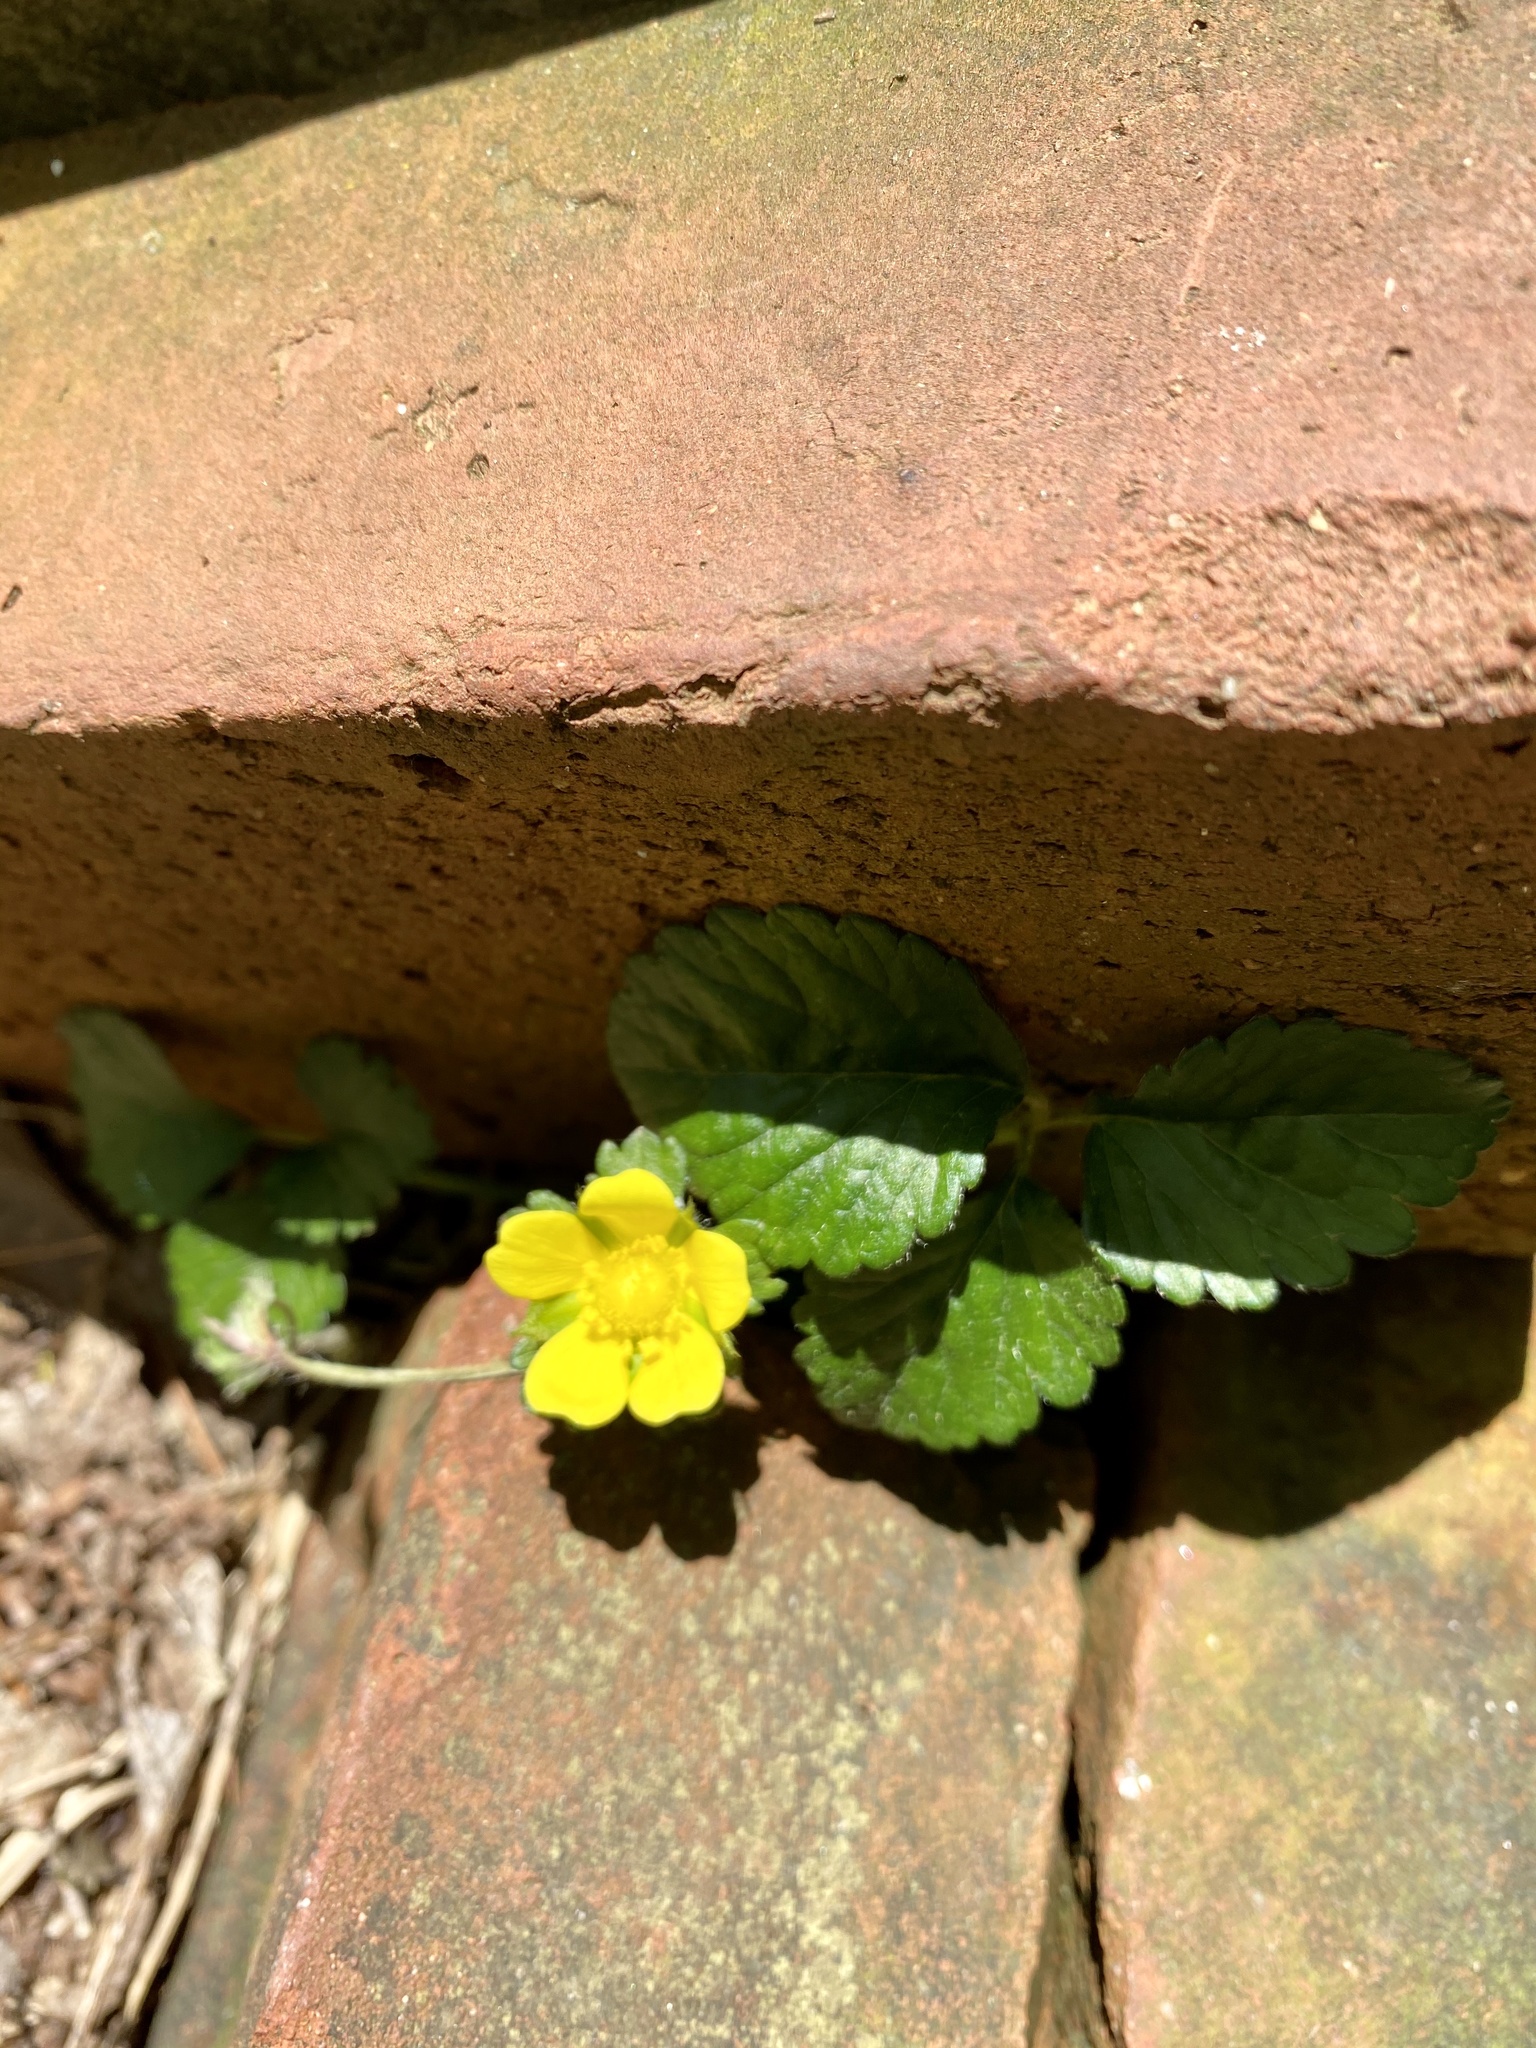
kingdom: Plantae
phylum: Tracheophyta
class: Magnoliopsida
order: Rosales
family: Rosaceae
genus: Potentilla
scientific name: Potentilla indica
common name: Yellow-flowered strawberry
